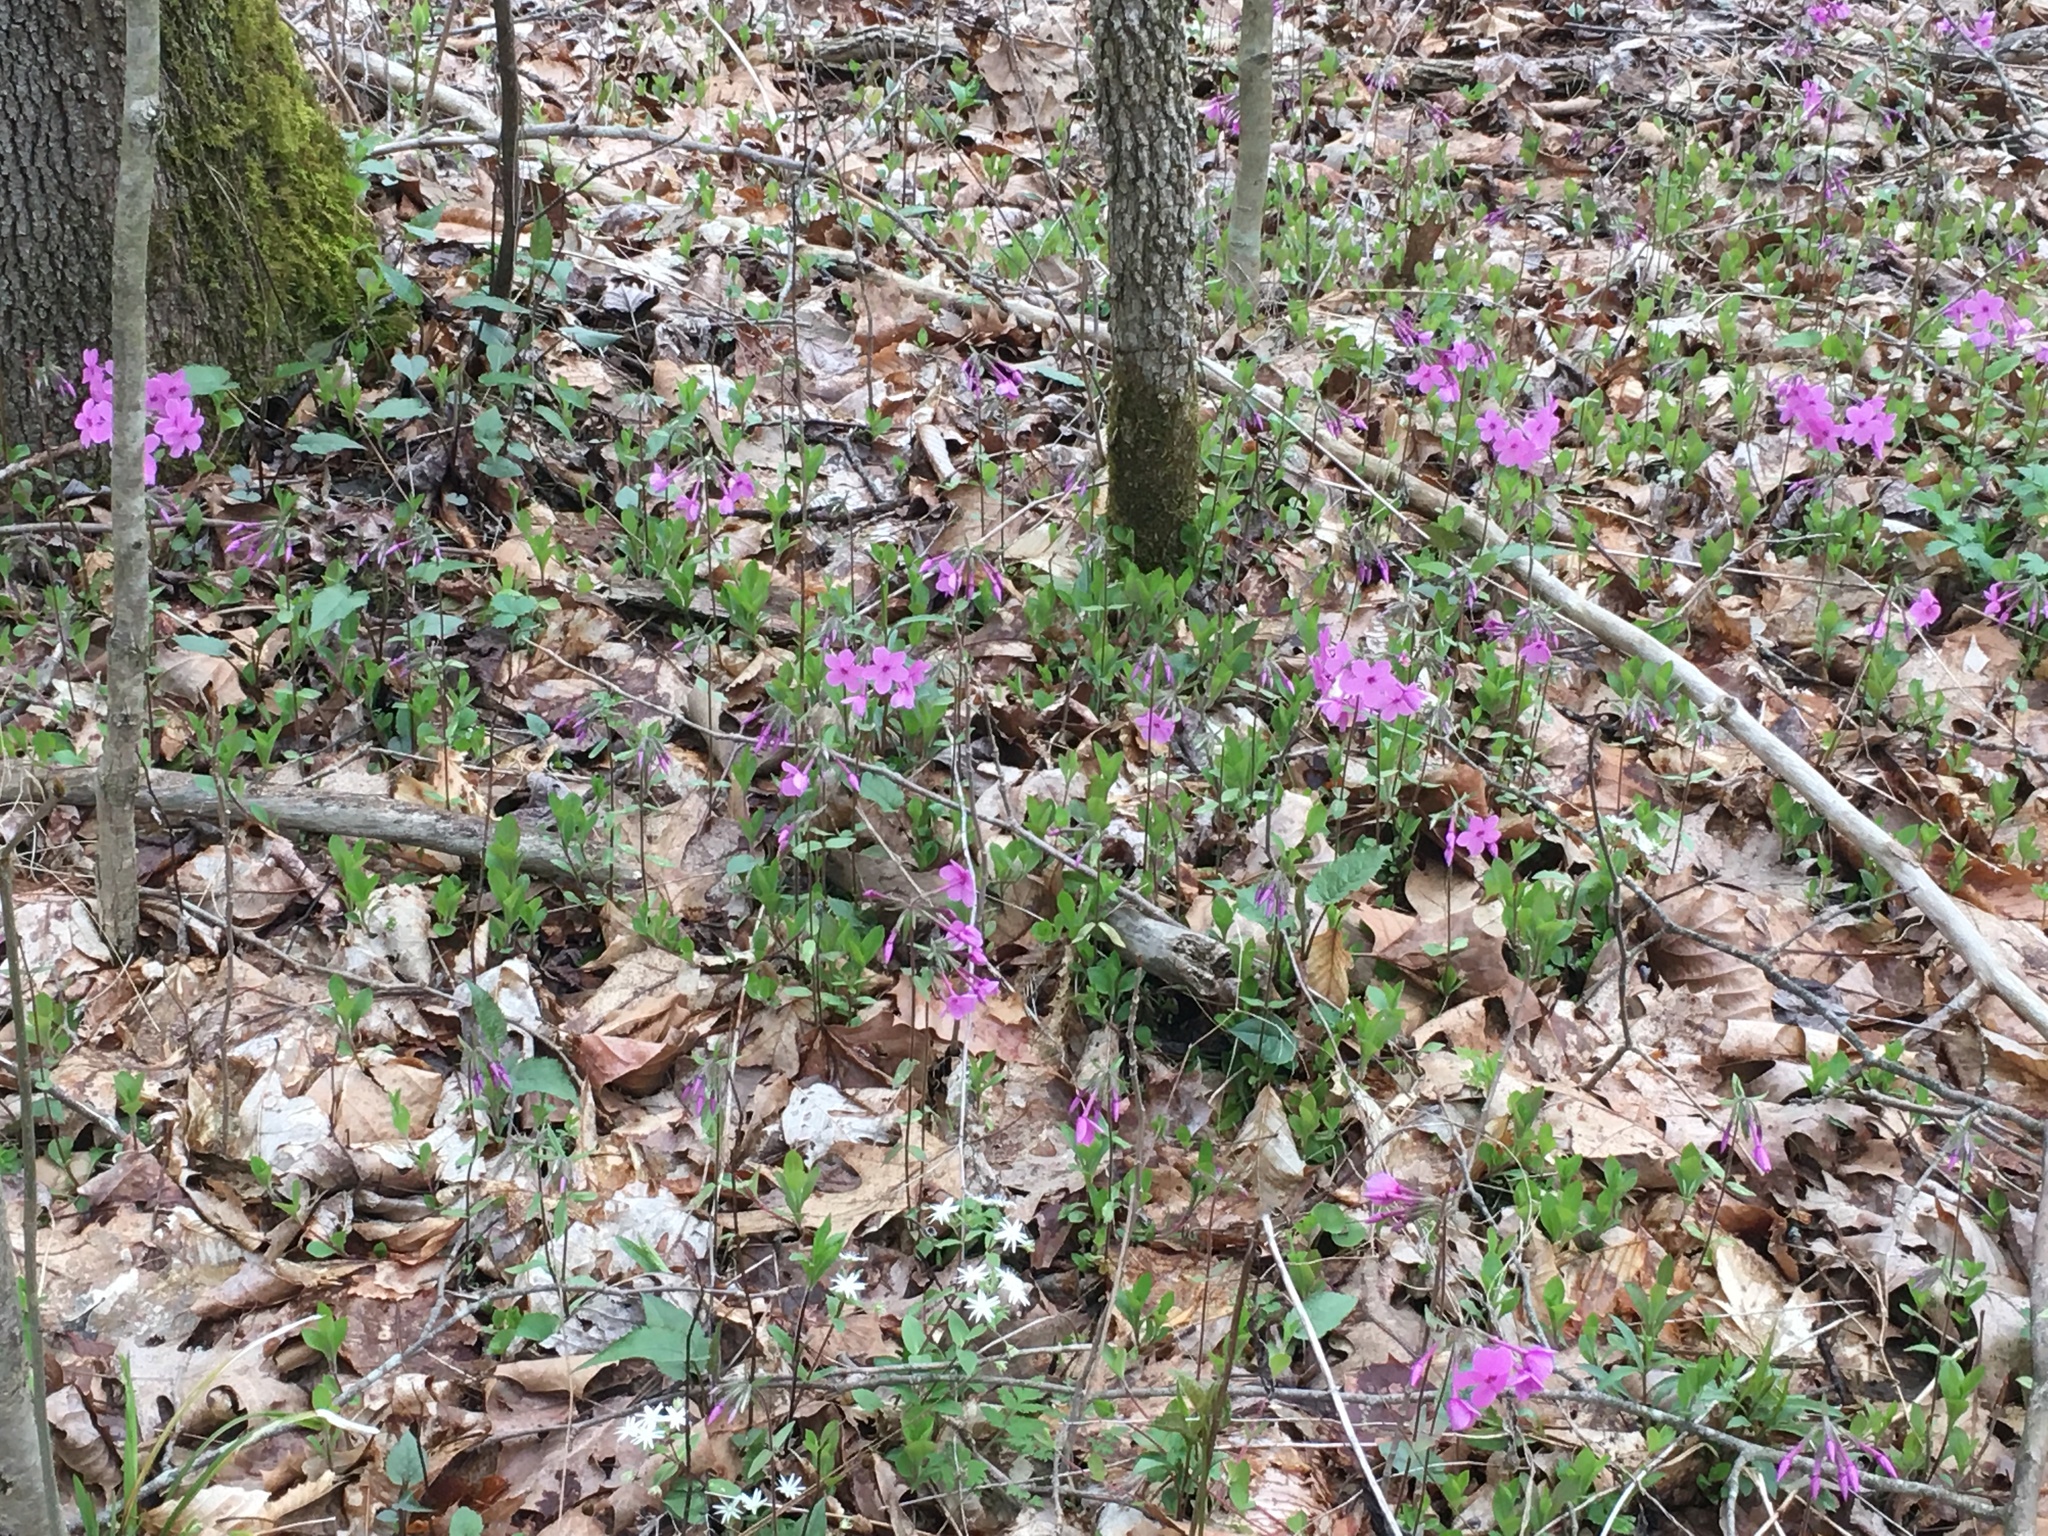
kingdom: Plantae
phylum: Tracheophyta
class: Magnoliopsida
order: Ericales
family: Polemoniaceae
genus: Phlox
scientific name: Phlox stolonifera
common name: Creeping phlox
